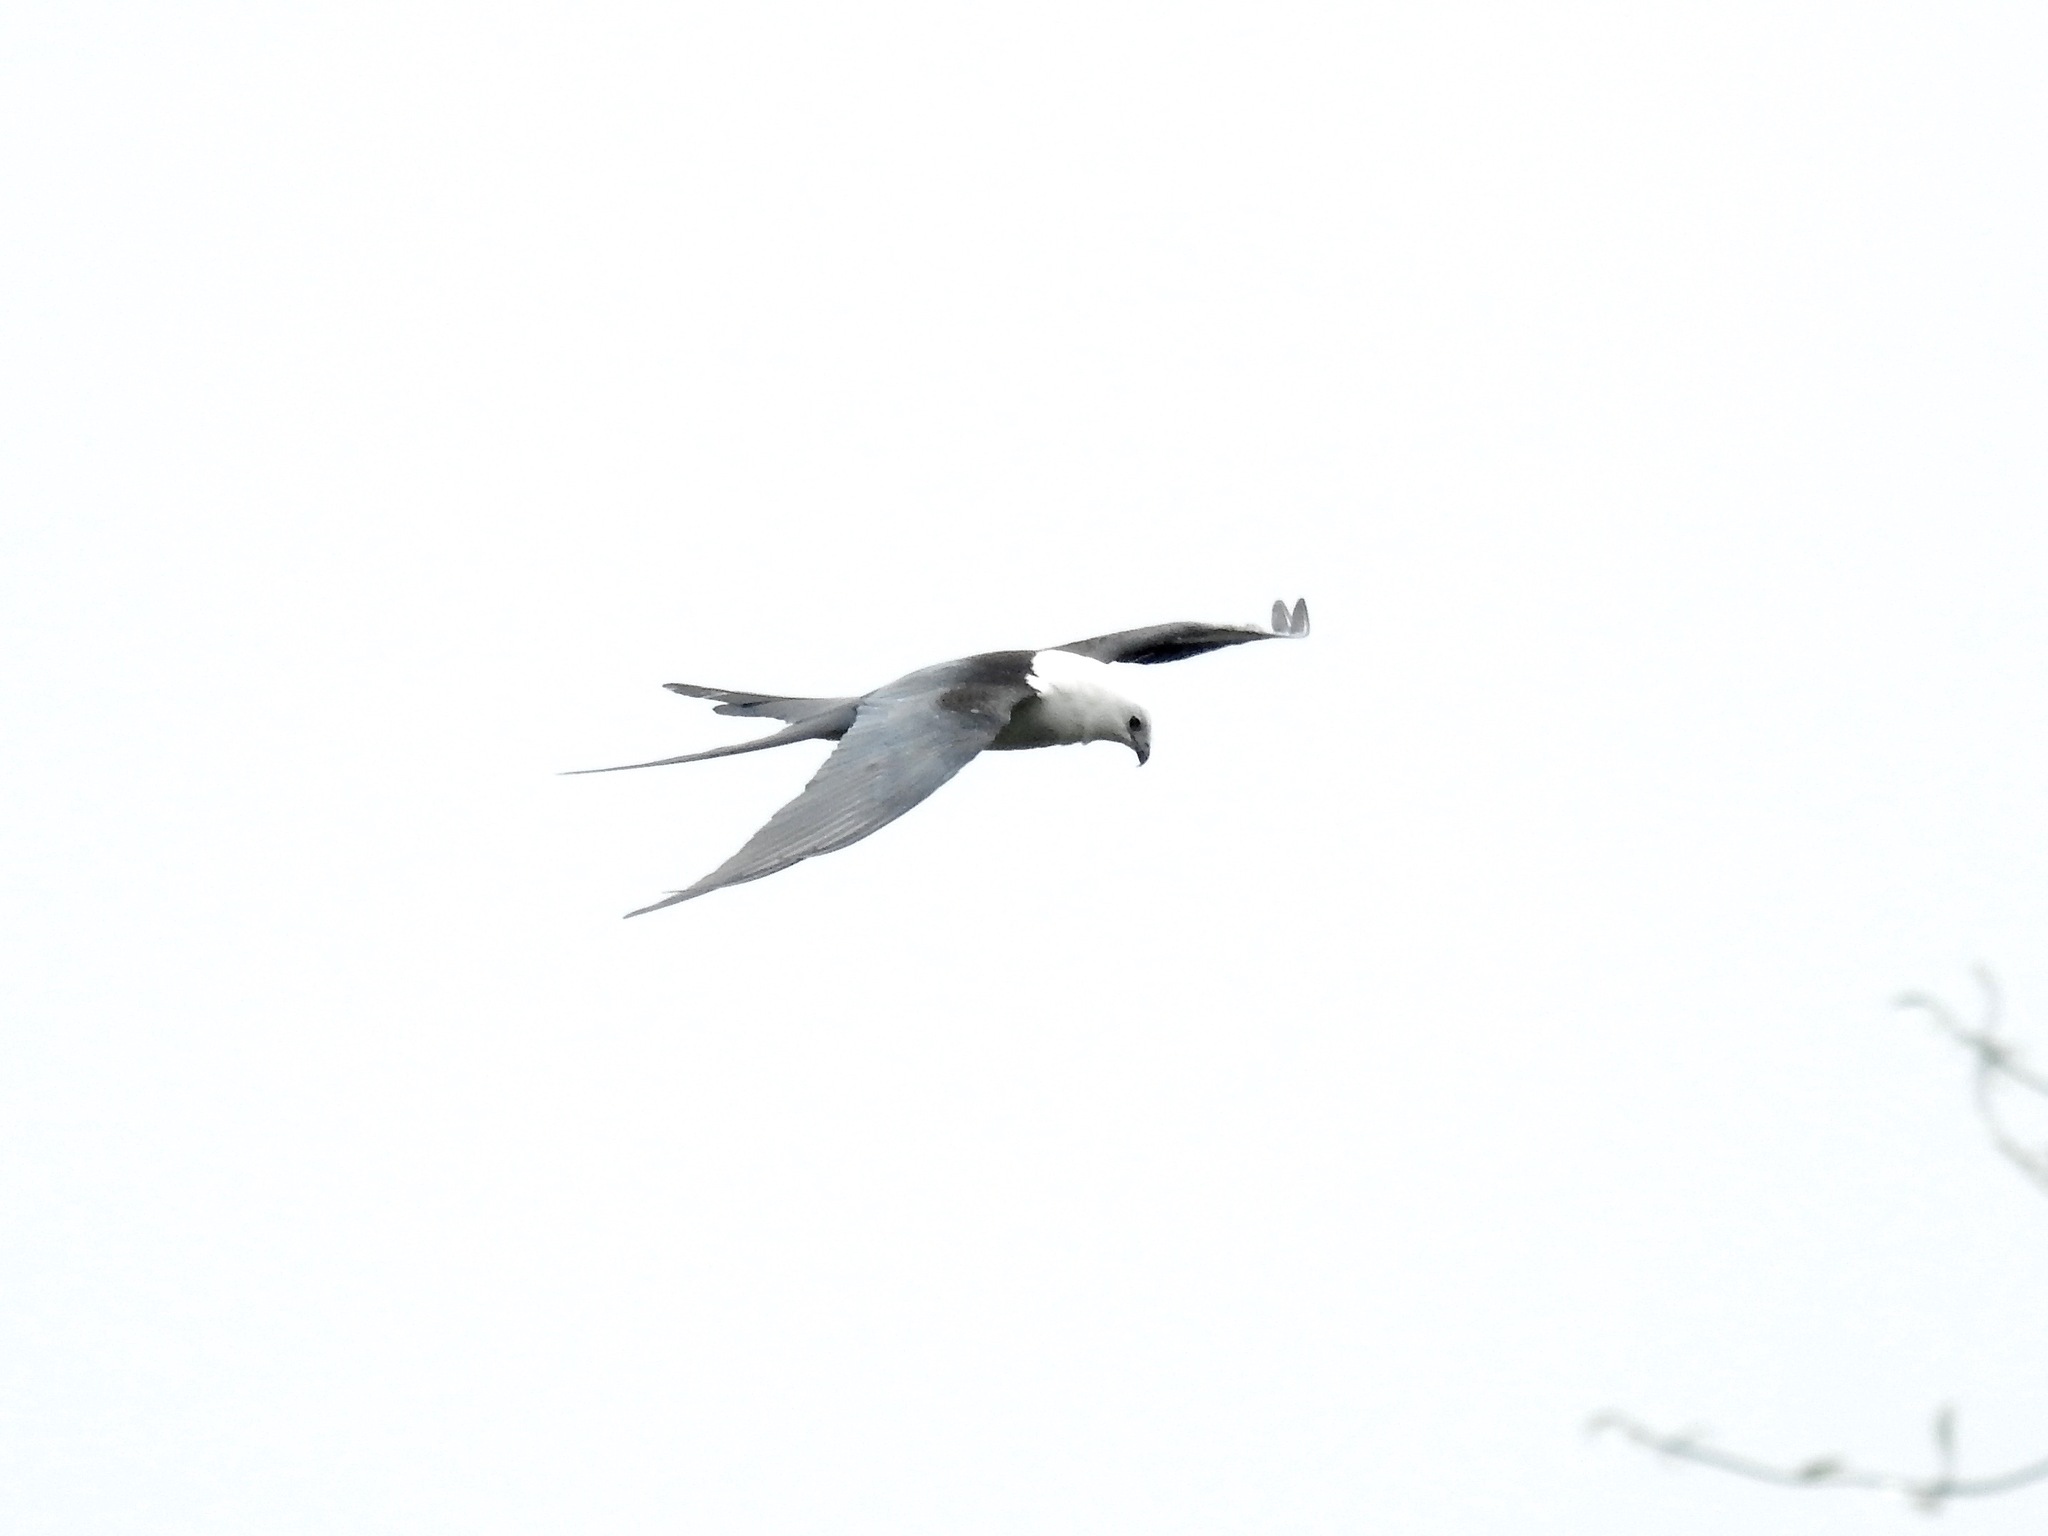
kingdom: Animalia
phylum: Chordata
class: Aves
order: Accipitriformes
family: Accipitridae
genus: Elanoides
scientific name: Elanoides forficatus
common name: Swallow-tailed kite
